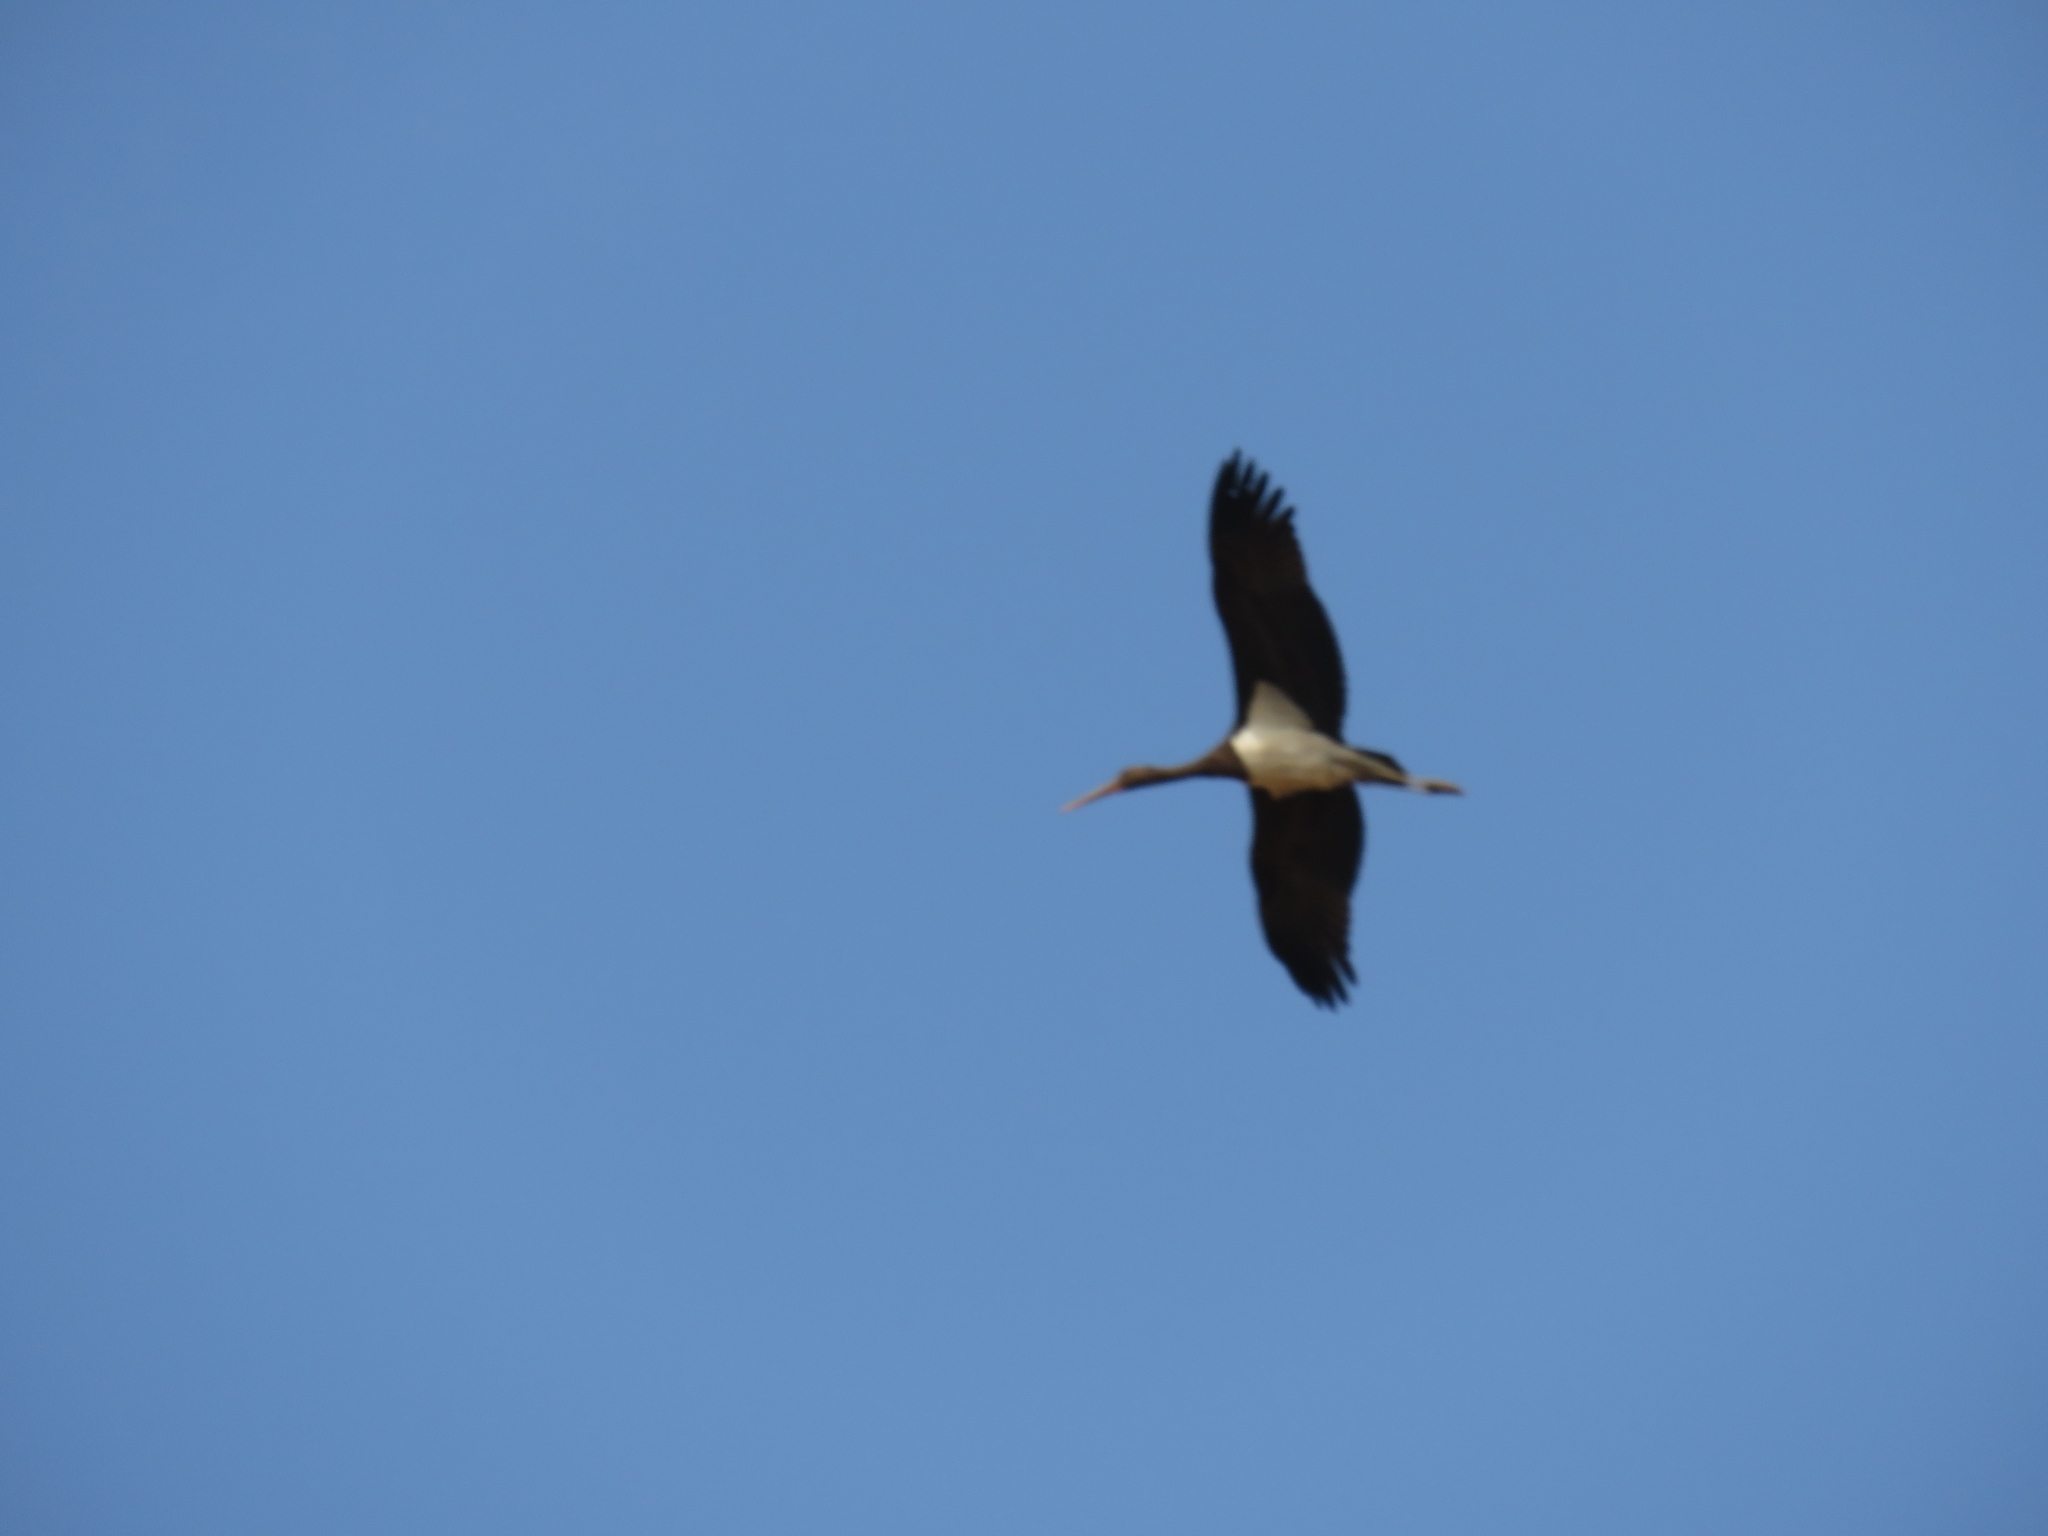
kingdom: Animalia
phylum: Chordata
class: Aves
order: Ciconiiformes
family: Ciconiidae
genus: Ciconia
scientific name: Ciconia nigra
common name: Black stork
